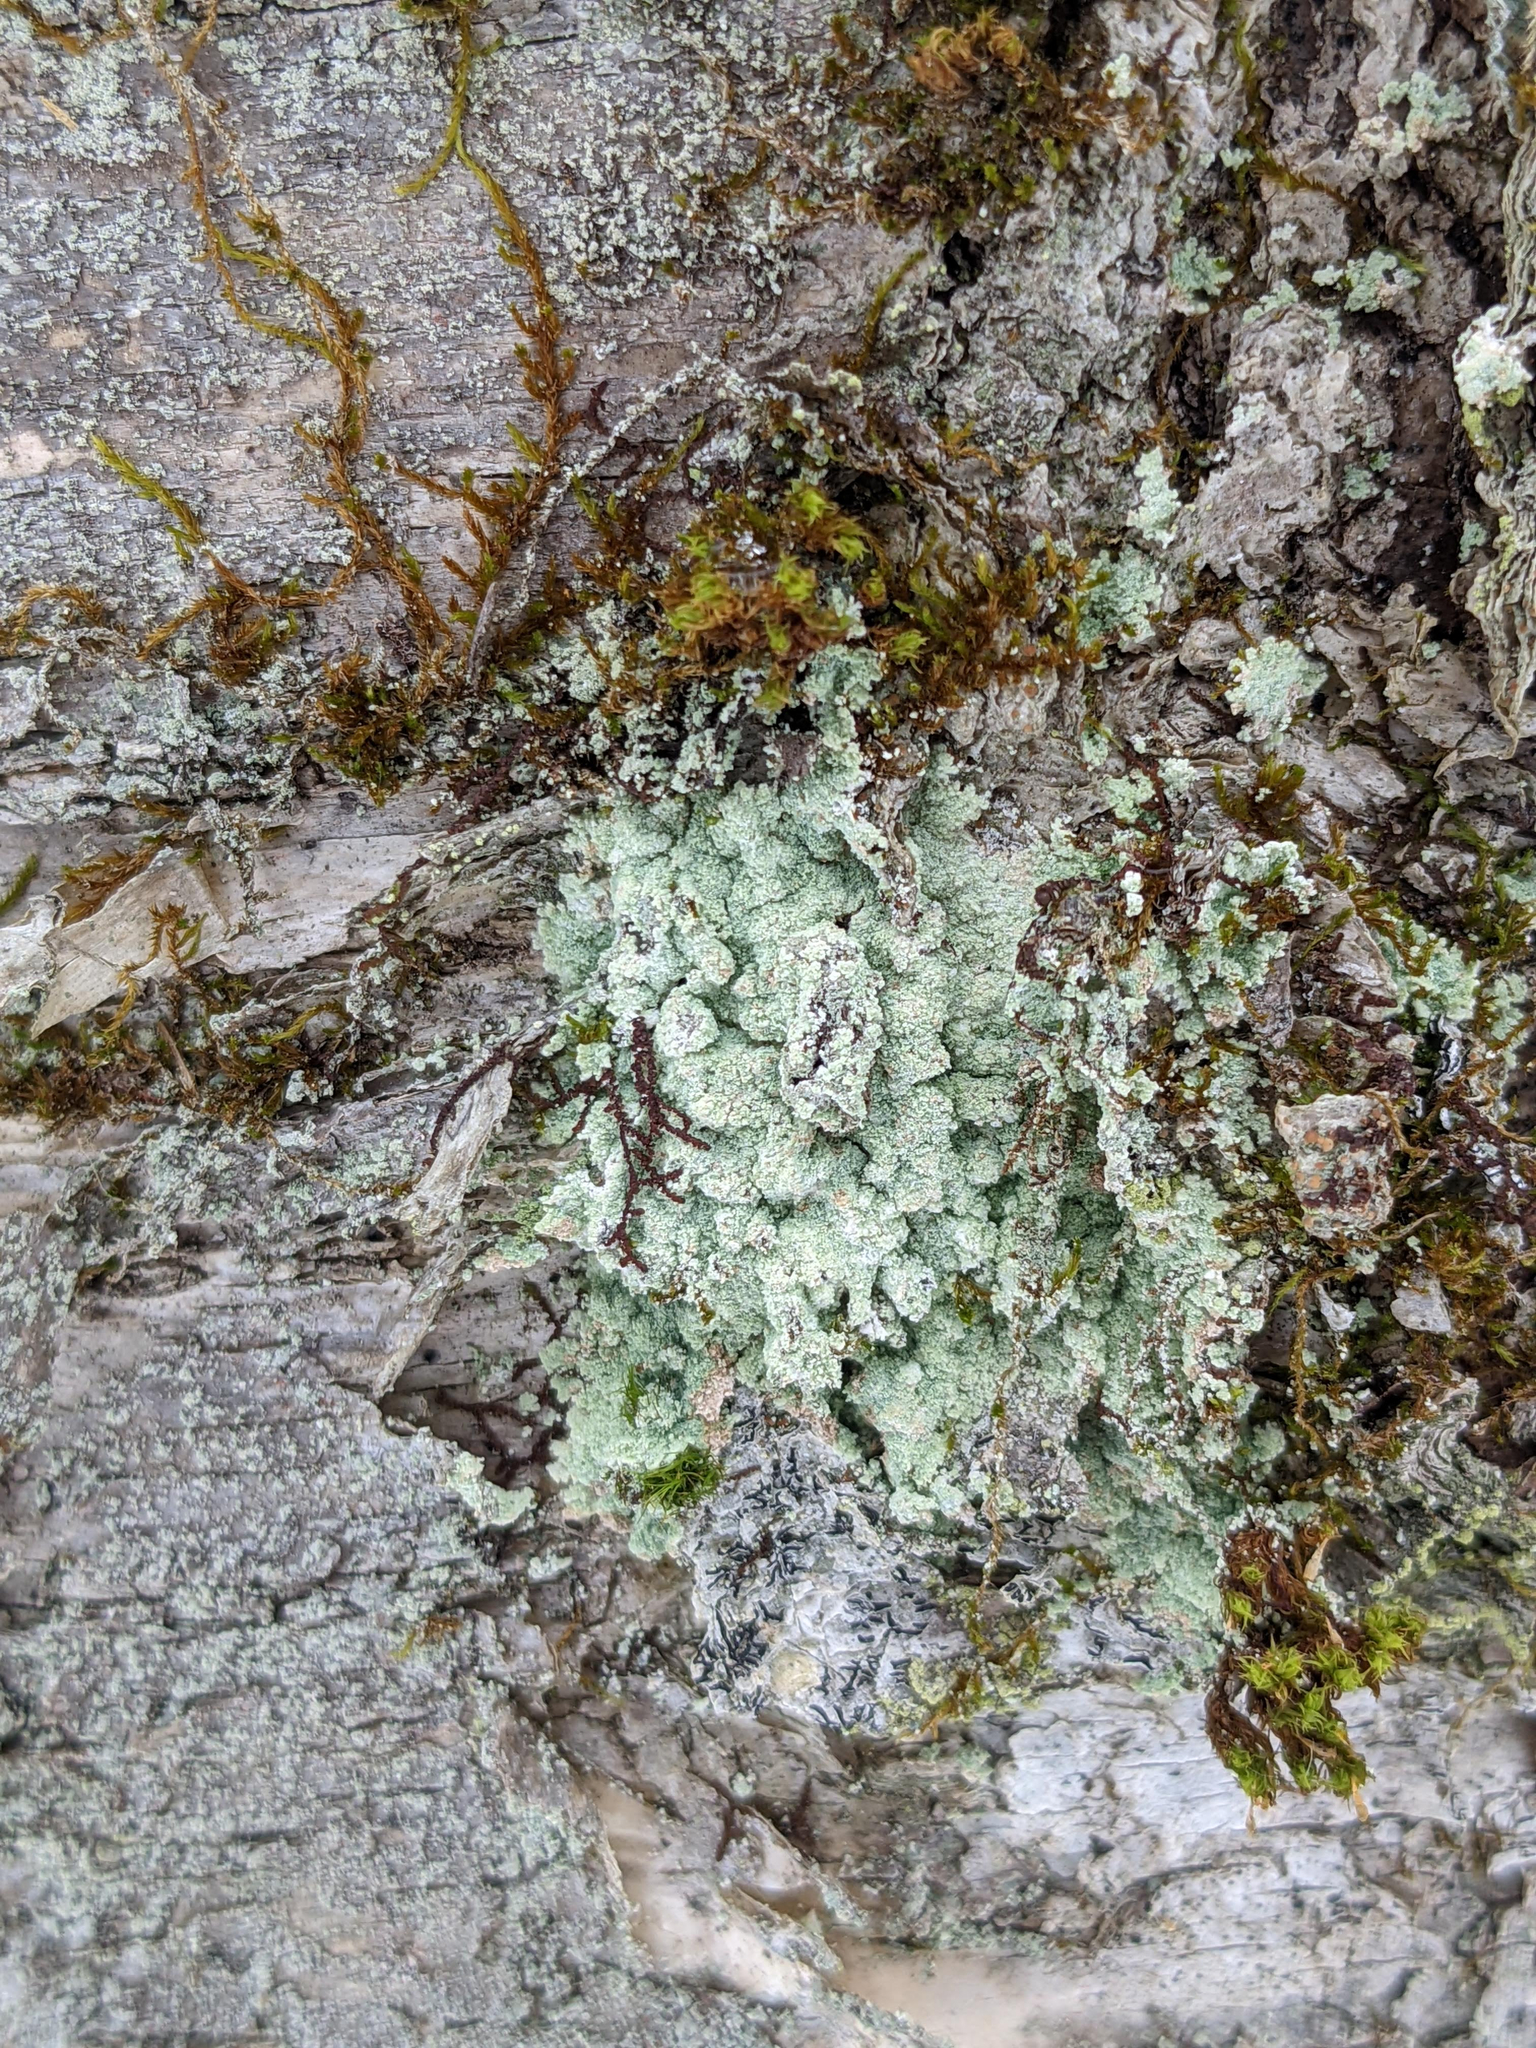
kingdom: Plantae
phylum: Bryophyta
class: Bryopsida
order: Orthotrichales
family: Orthotrichaceae
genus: Ulota
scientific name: Ulota crispa
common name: Crisped pincushion moss
